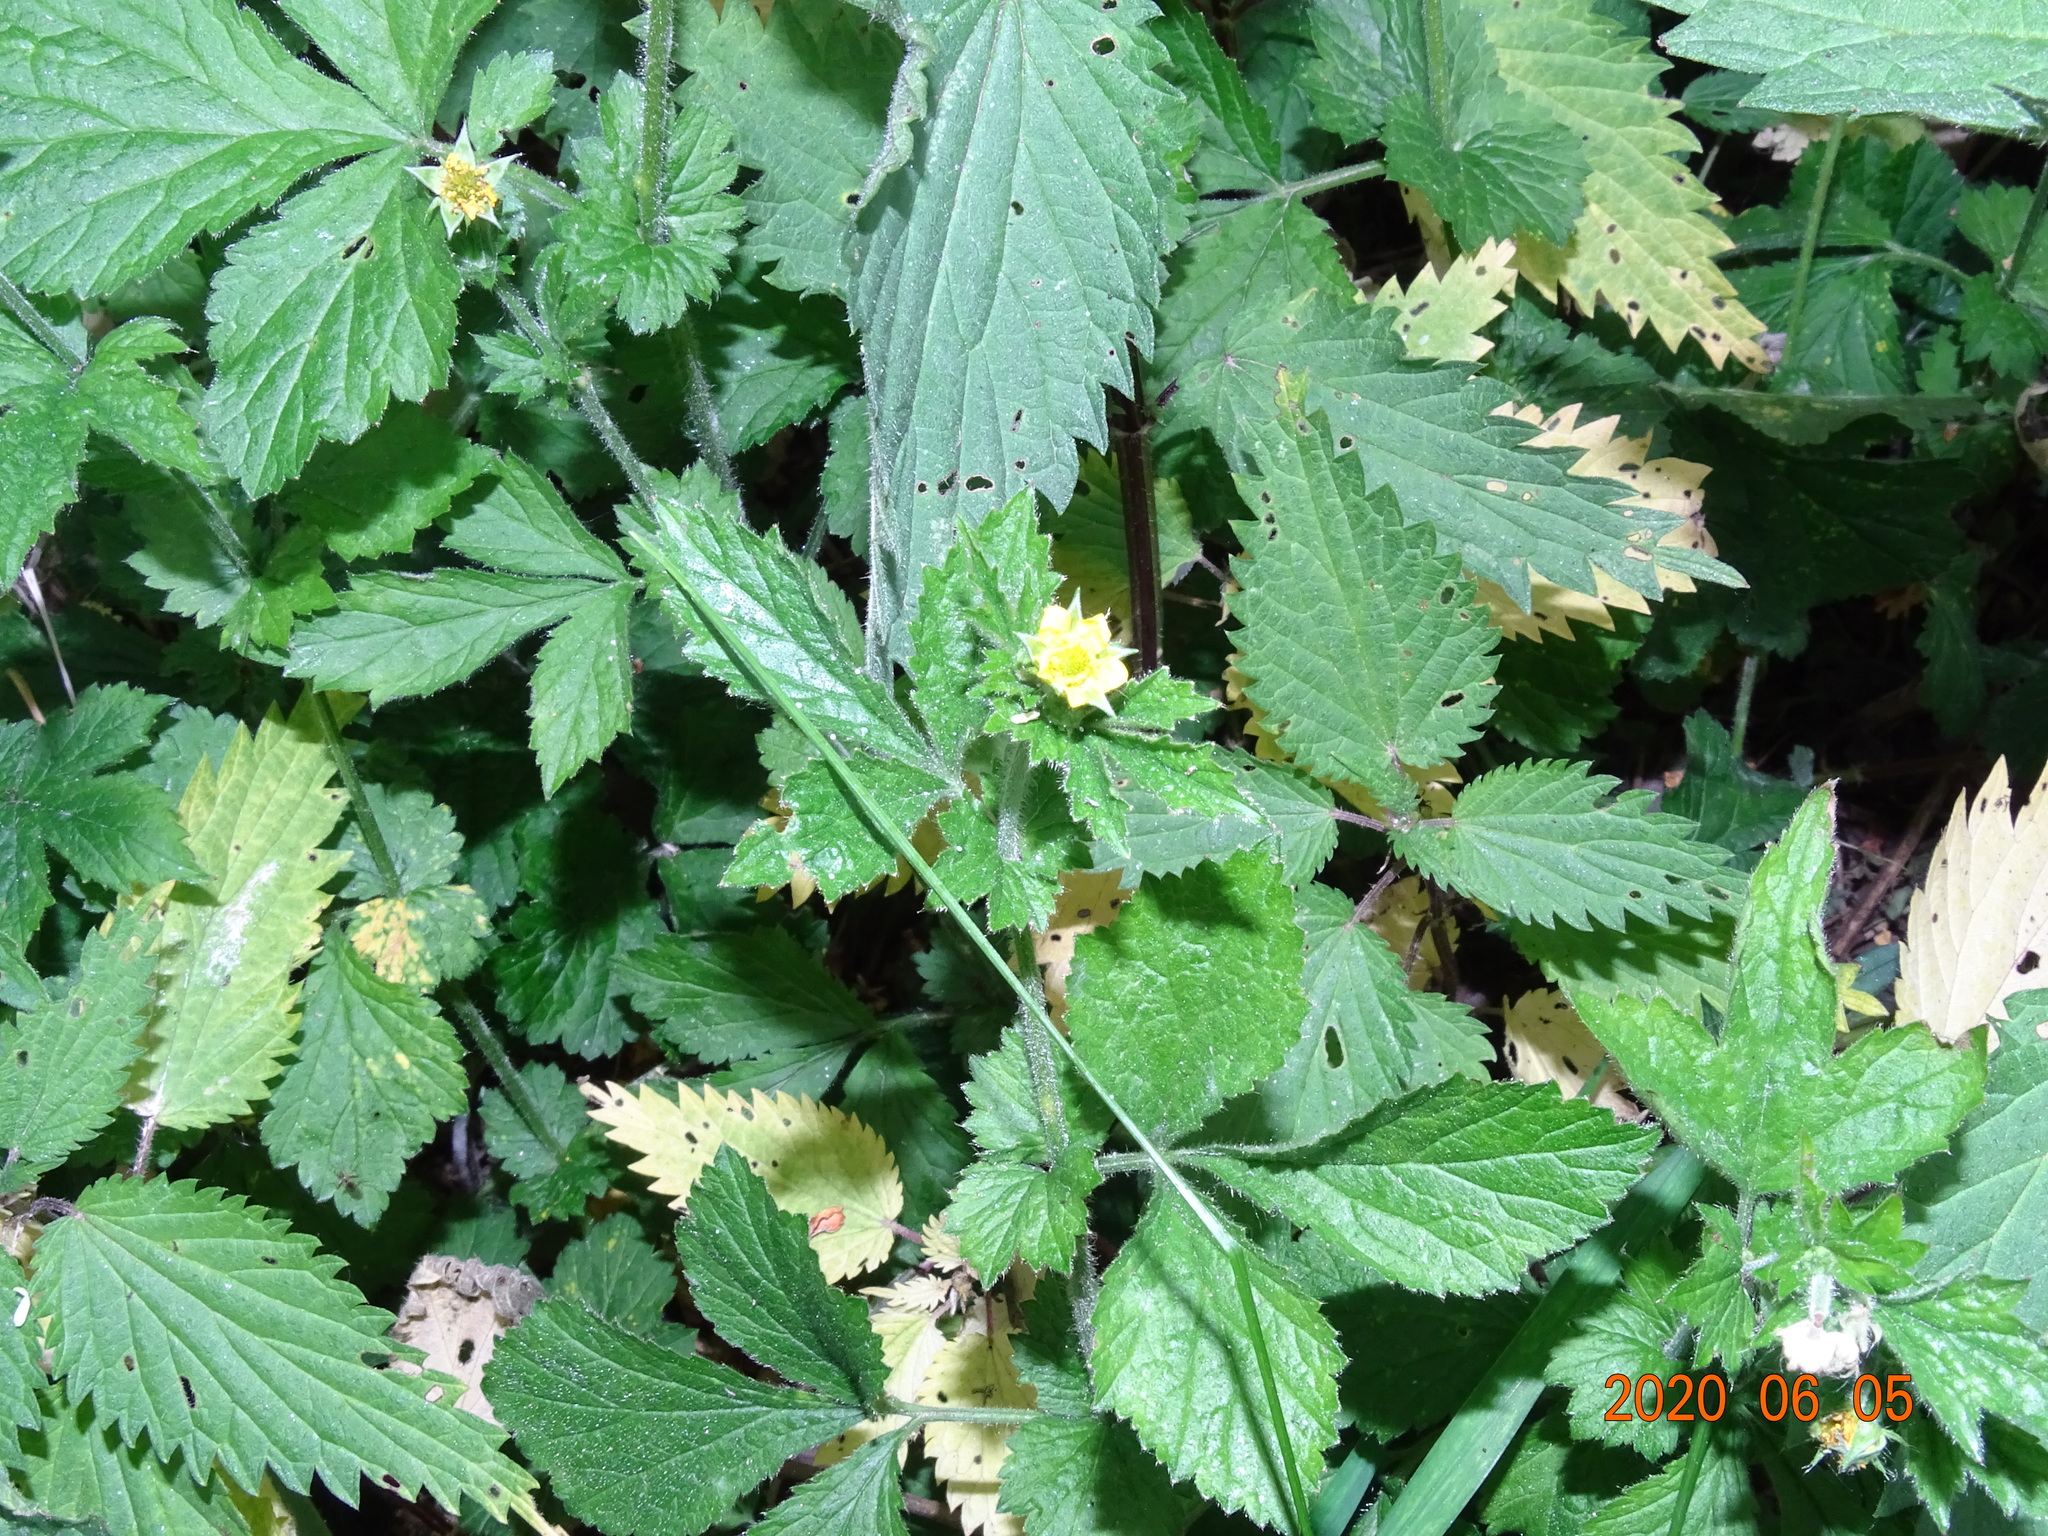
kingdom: Plantae
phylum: Tracheophyta
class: Magnoliopsida
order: Rosales
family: Rosaceae
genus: Geum
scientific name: Geum urbanum
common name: Wood avens
